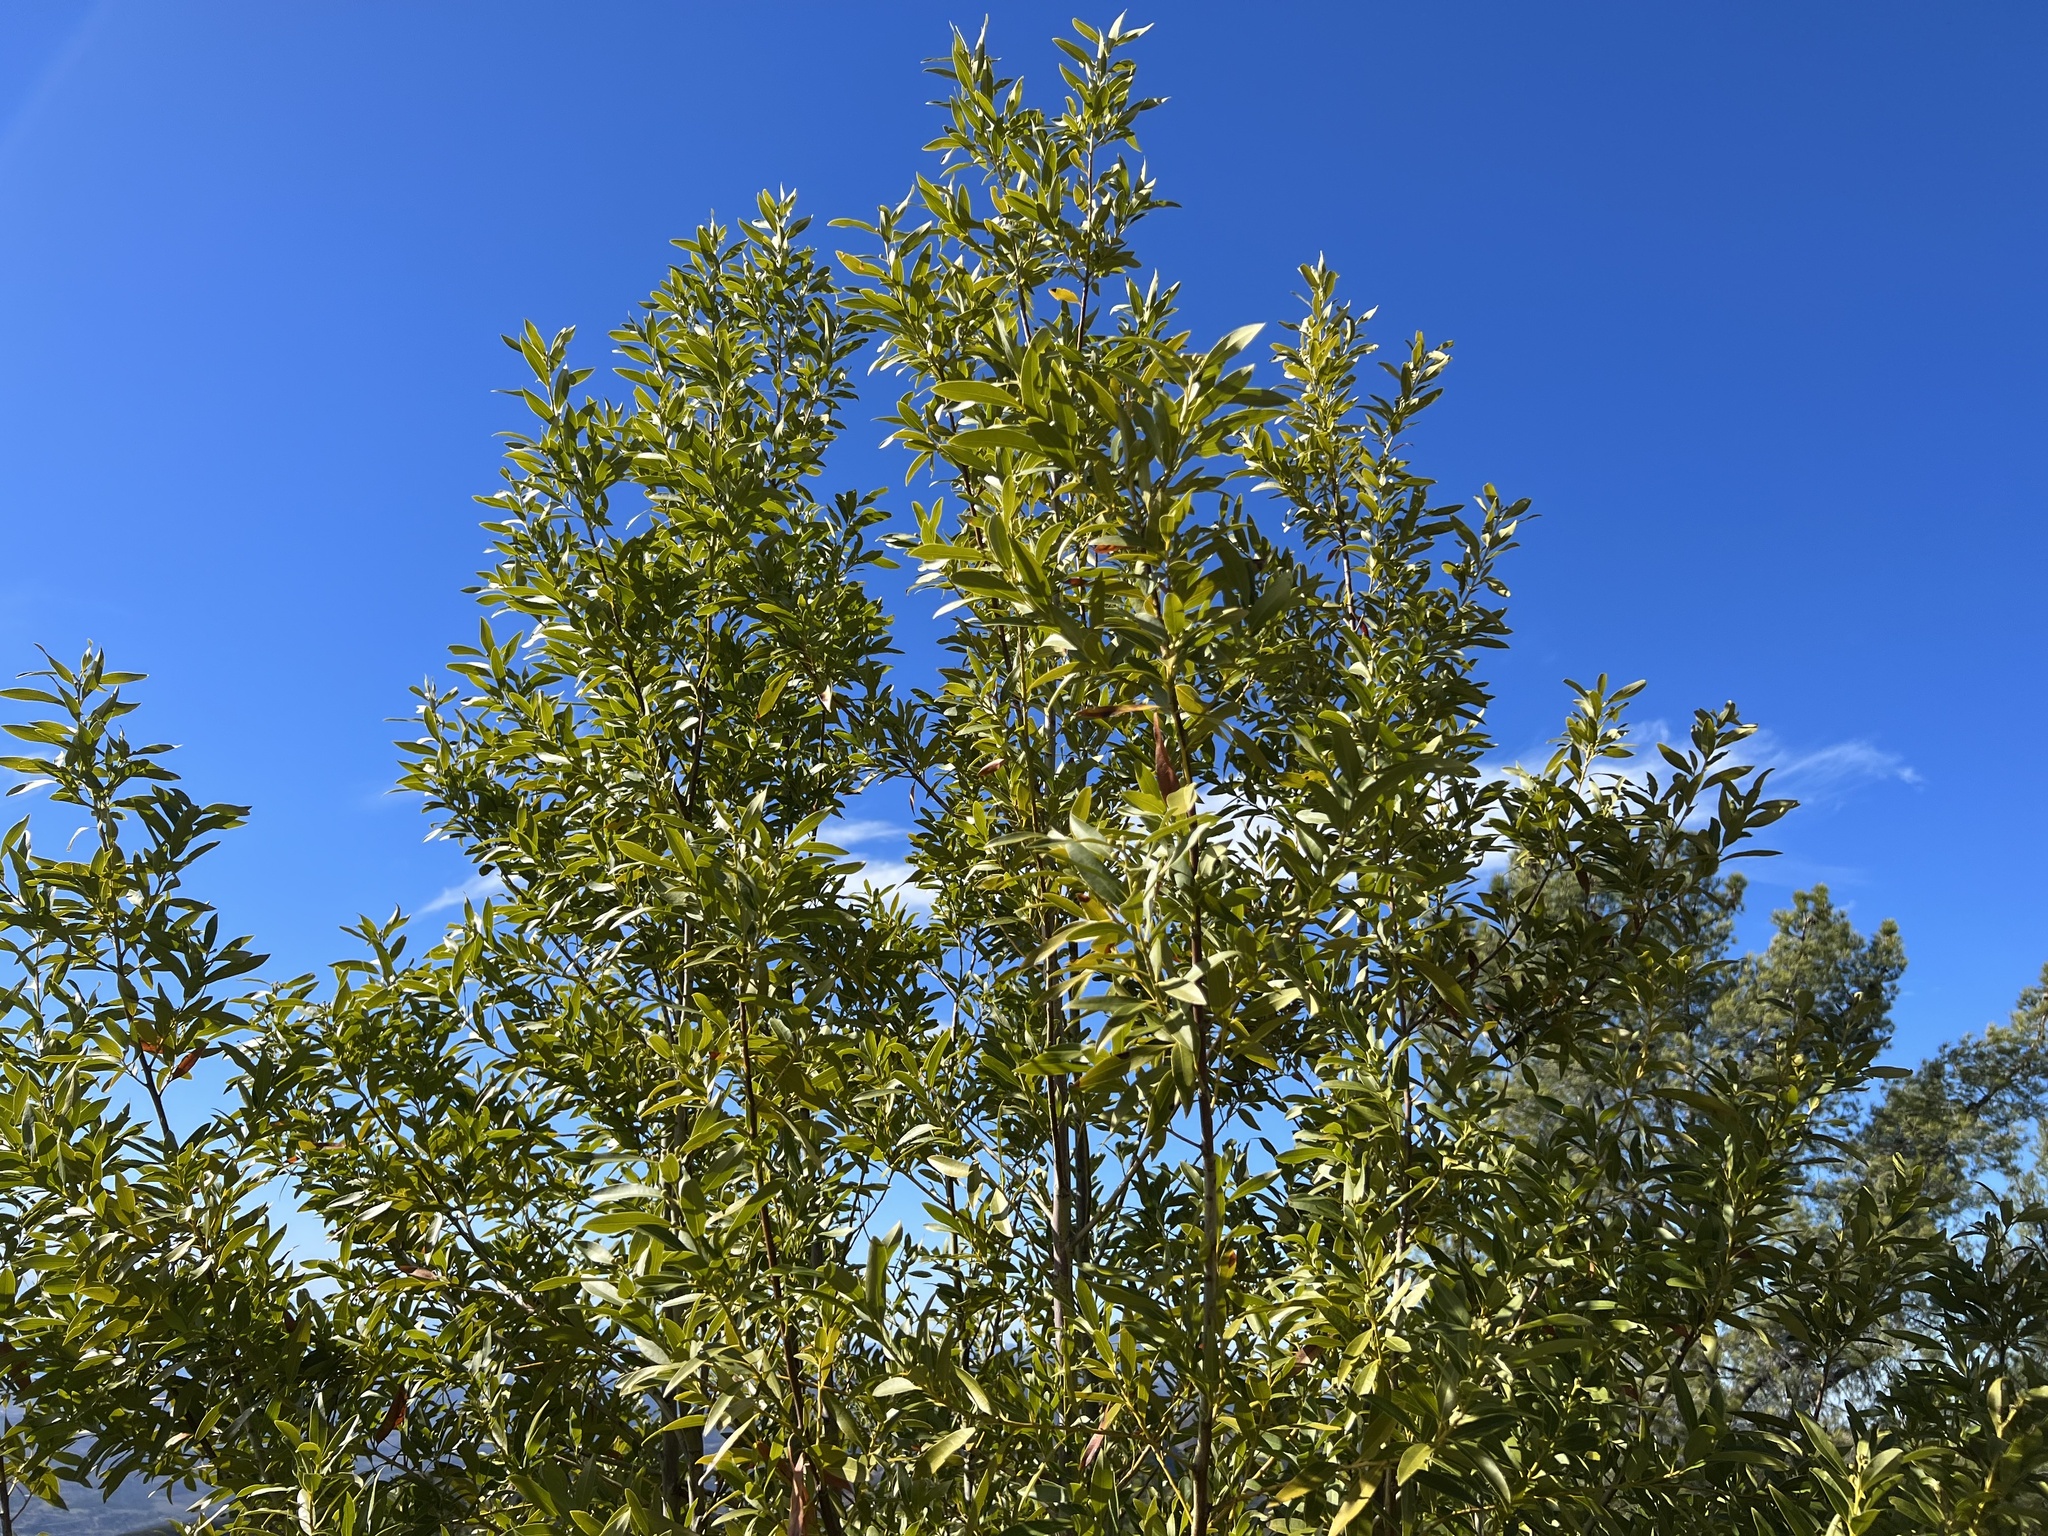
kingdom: Plantae
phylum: Tracheophyta
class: Magnoliopsida
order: Laurales
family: Lauraceae
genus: Umbellularia
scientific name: Umbellularia californica
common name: California bay
